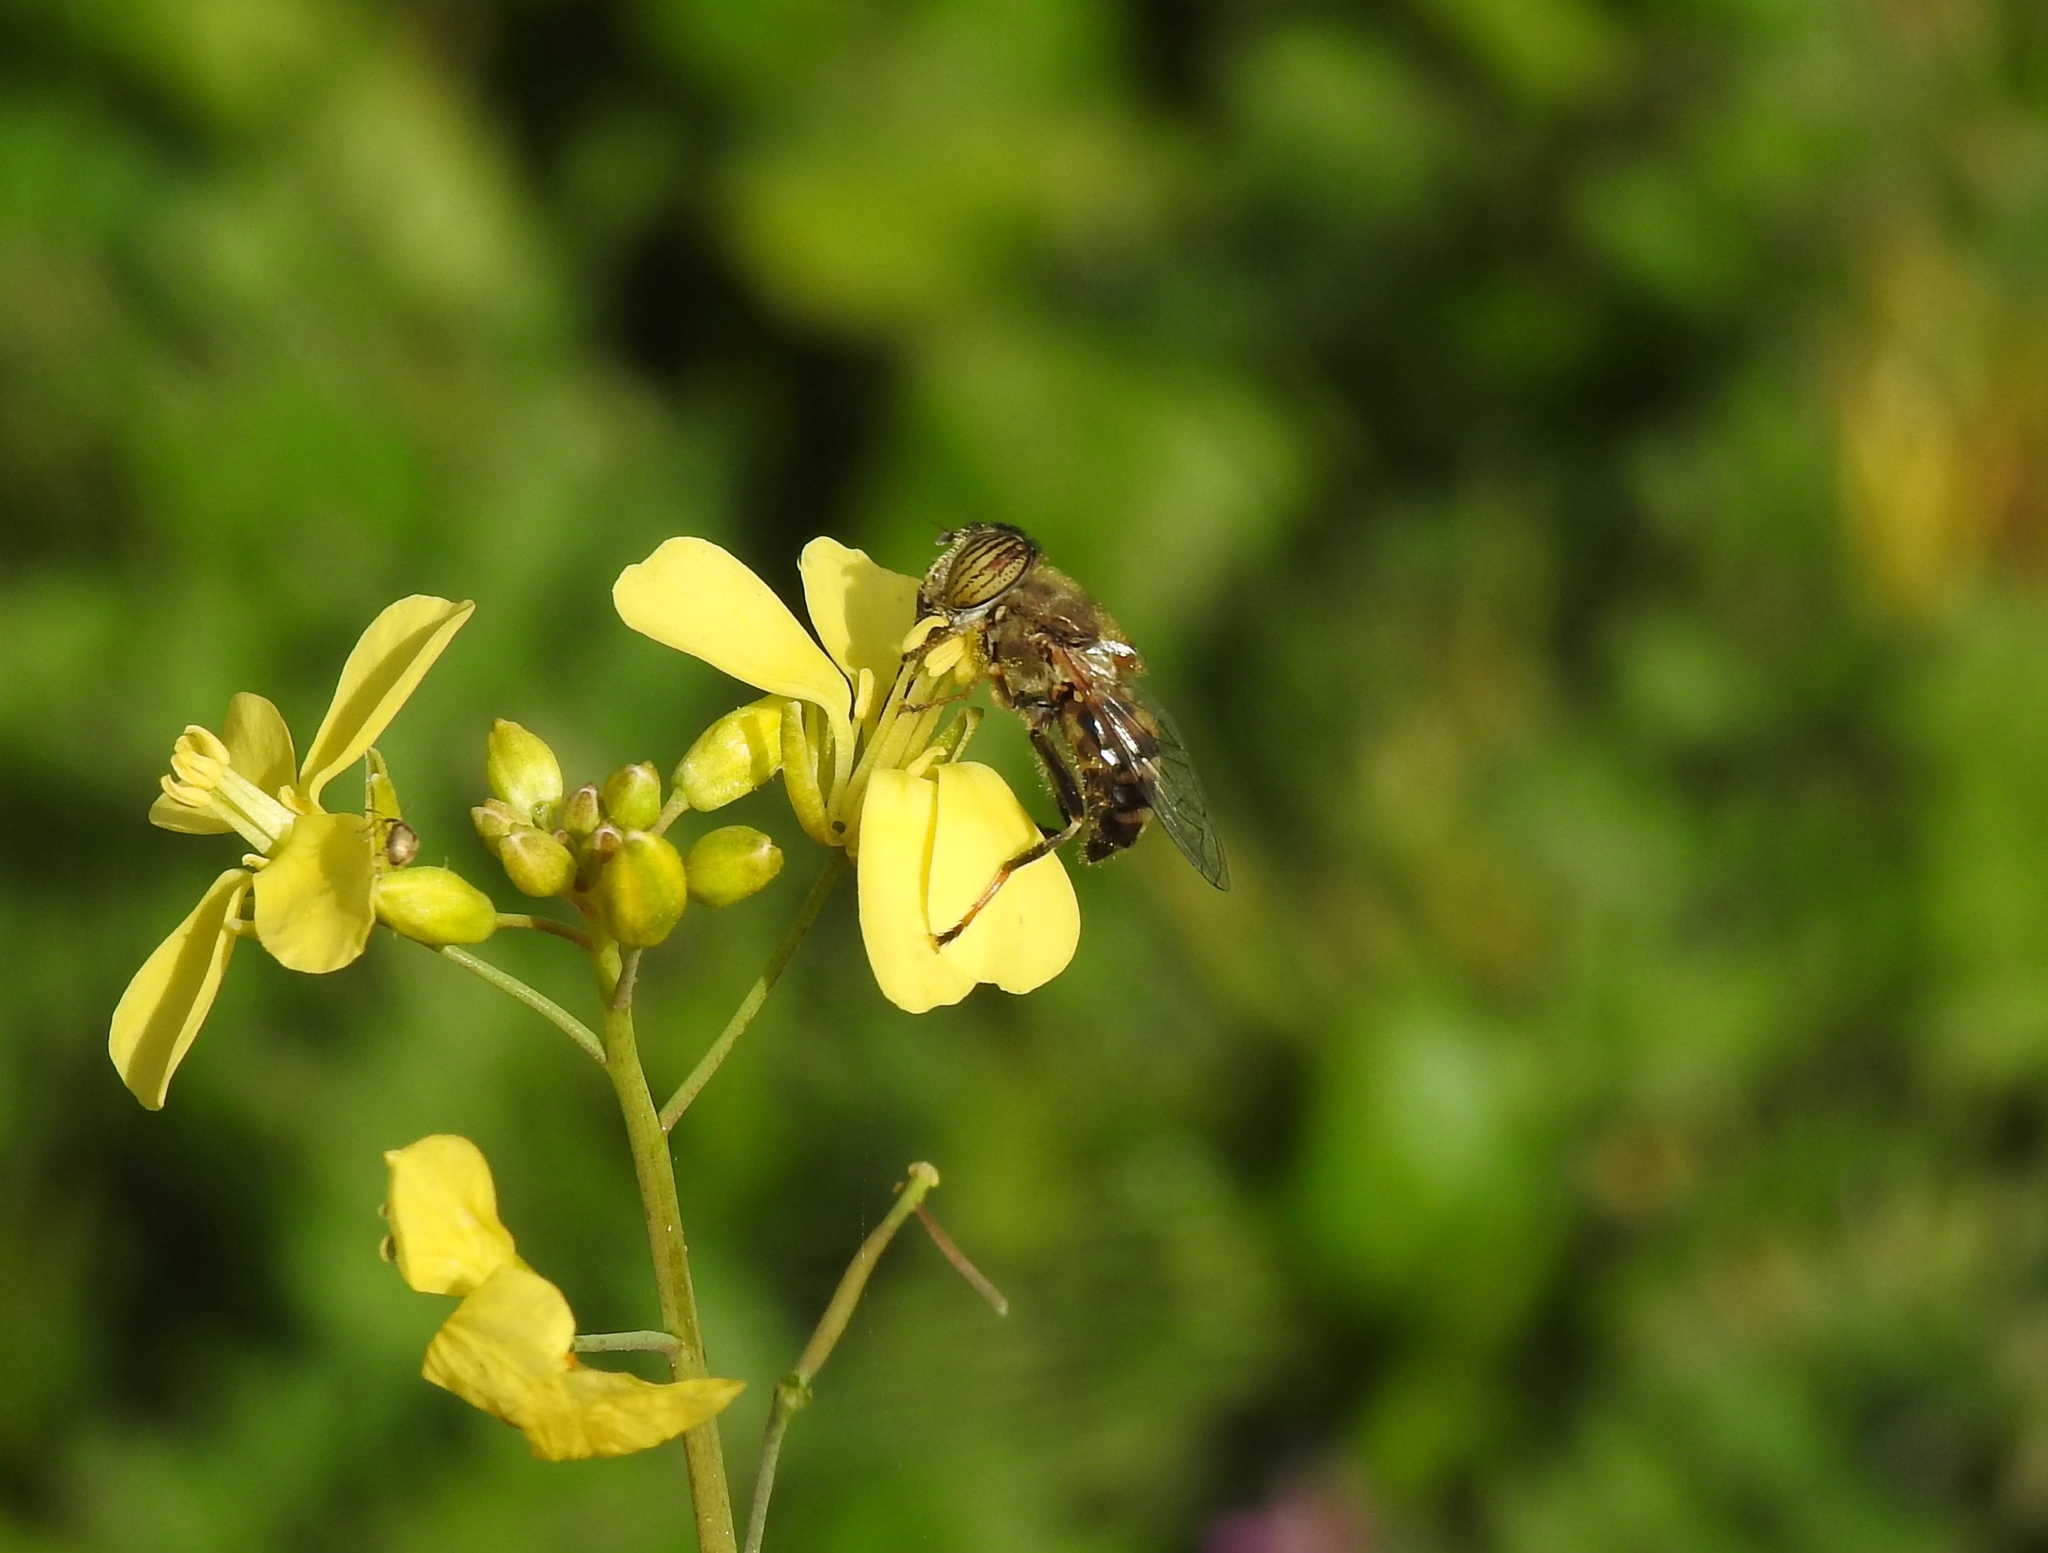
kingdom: Animalia
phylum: Arthropoda
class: Insecta
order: Diptera
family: Syrphidae
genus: Eristalinus
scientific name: Eristalinus taeniops
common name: Syrphid fly
